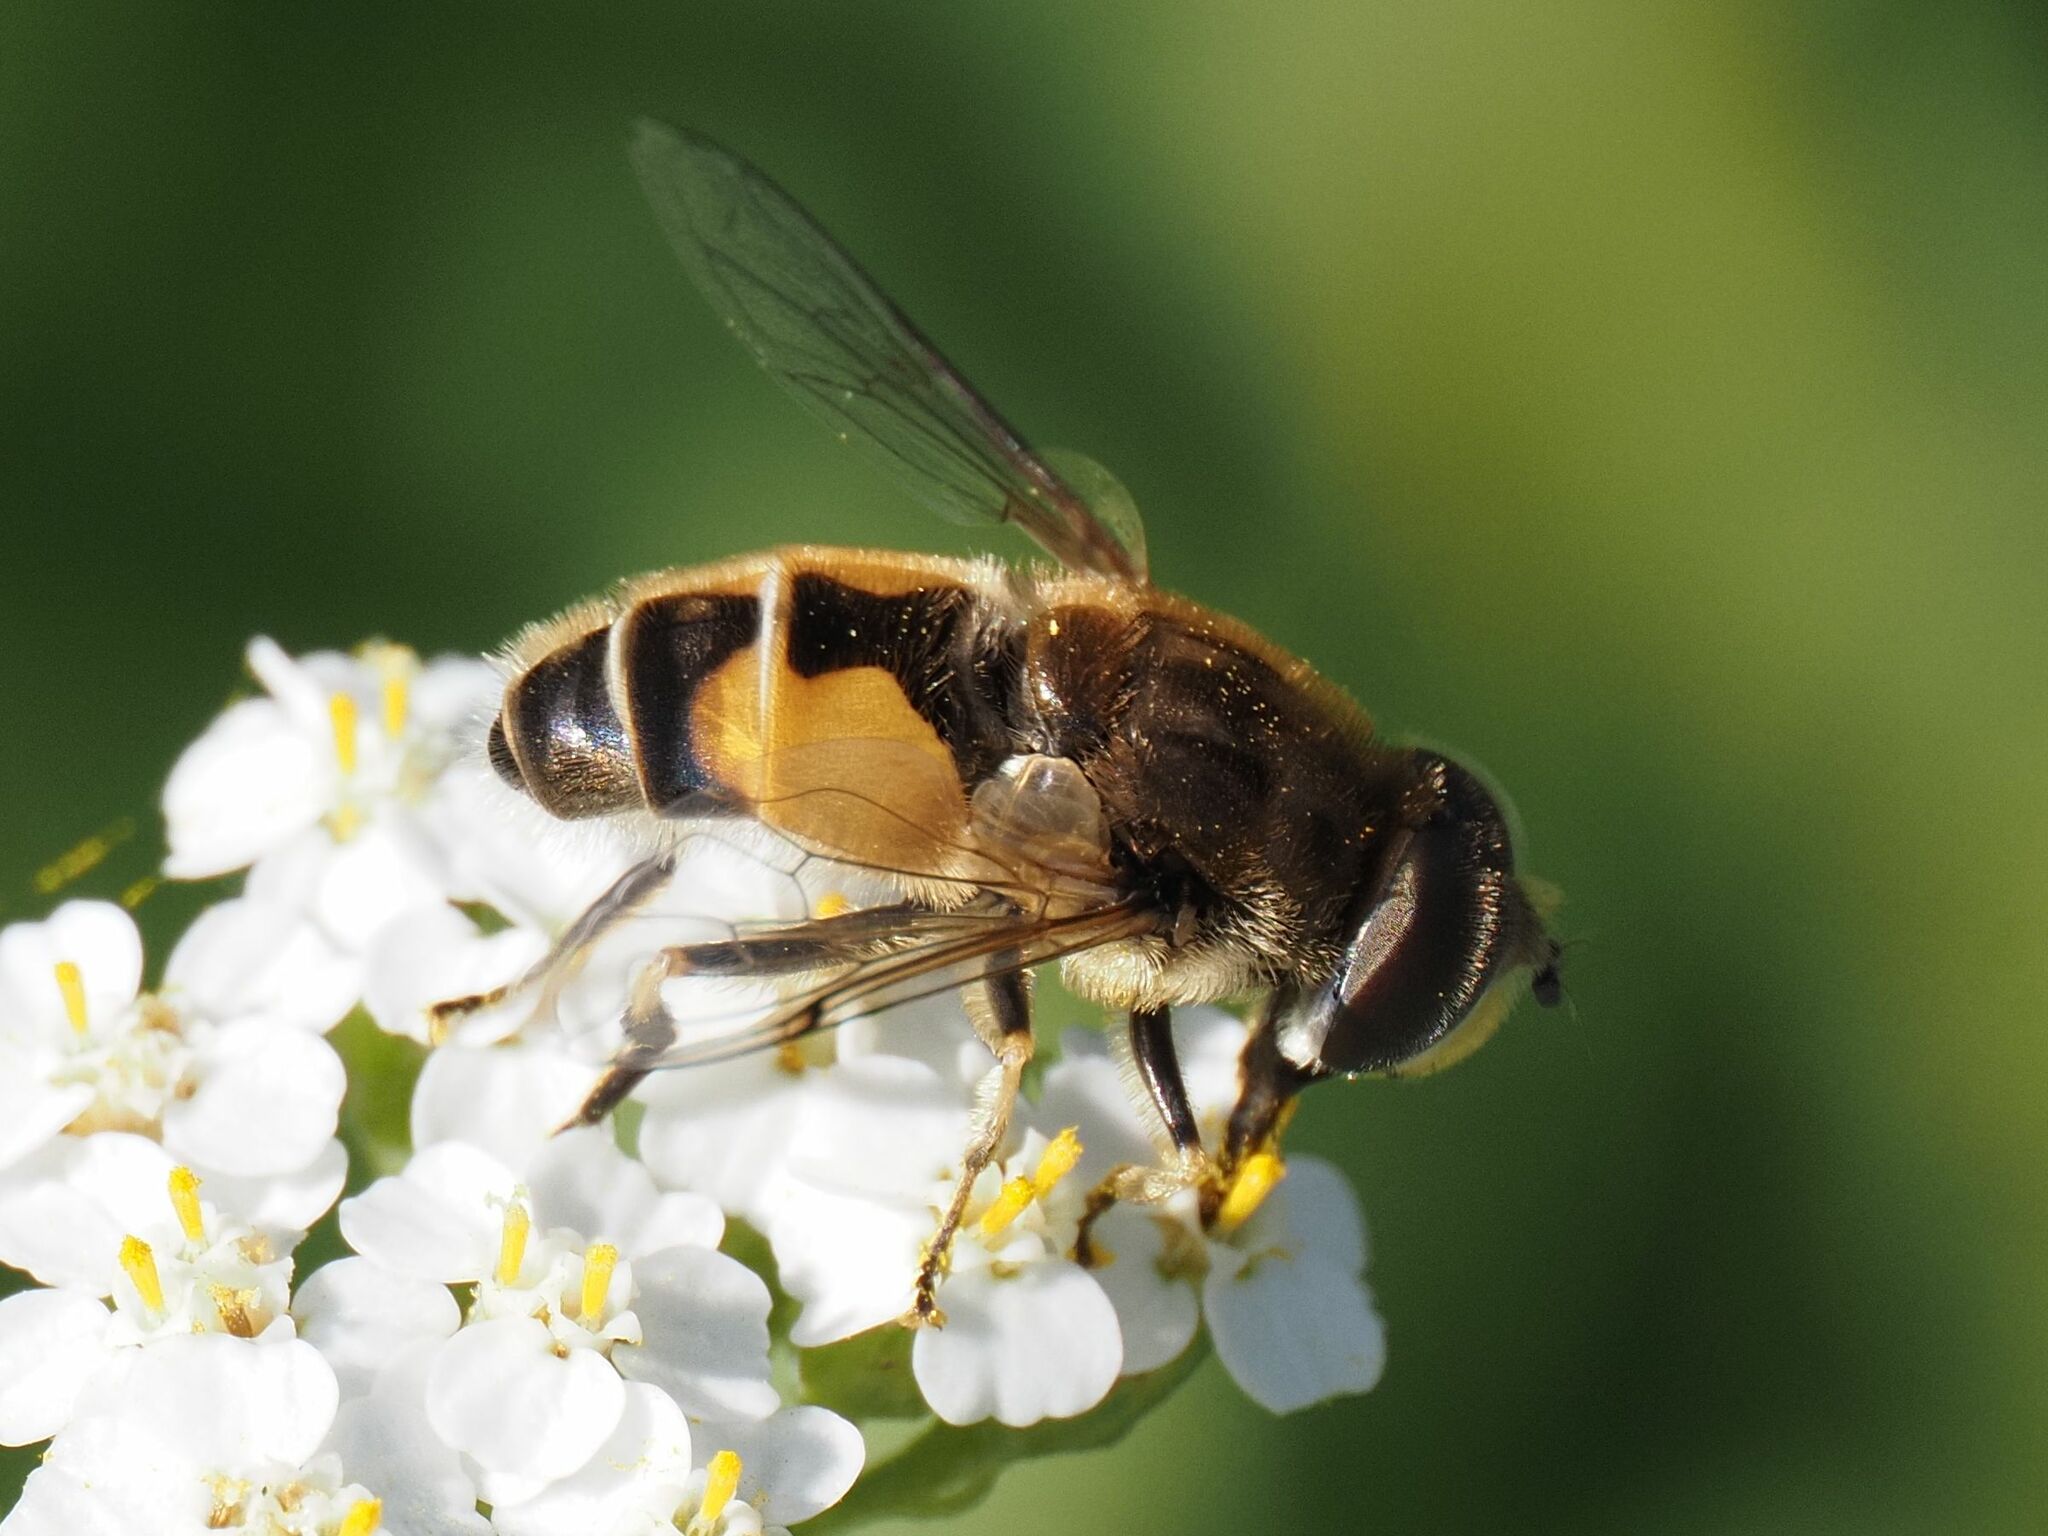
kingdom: Animalia
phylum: Arthropoda
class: Insecta
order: Diptera
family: Syrphidae
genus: Eristalis
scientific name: Eristalis arbustorum
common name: Hover fly
